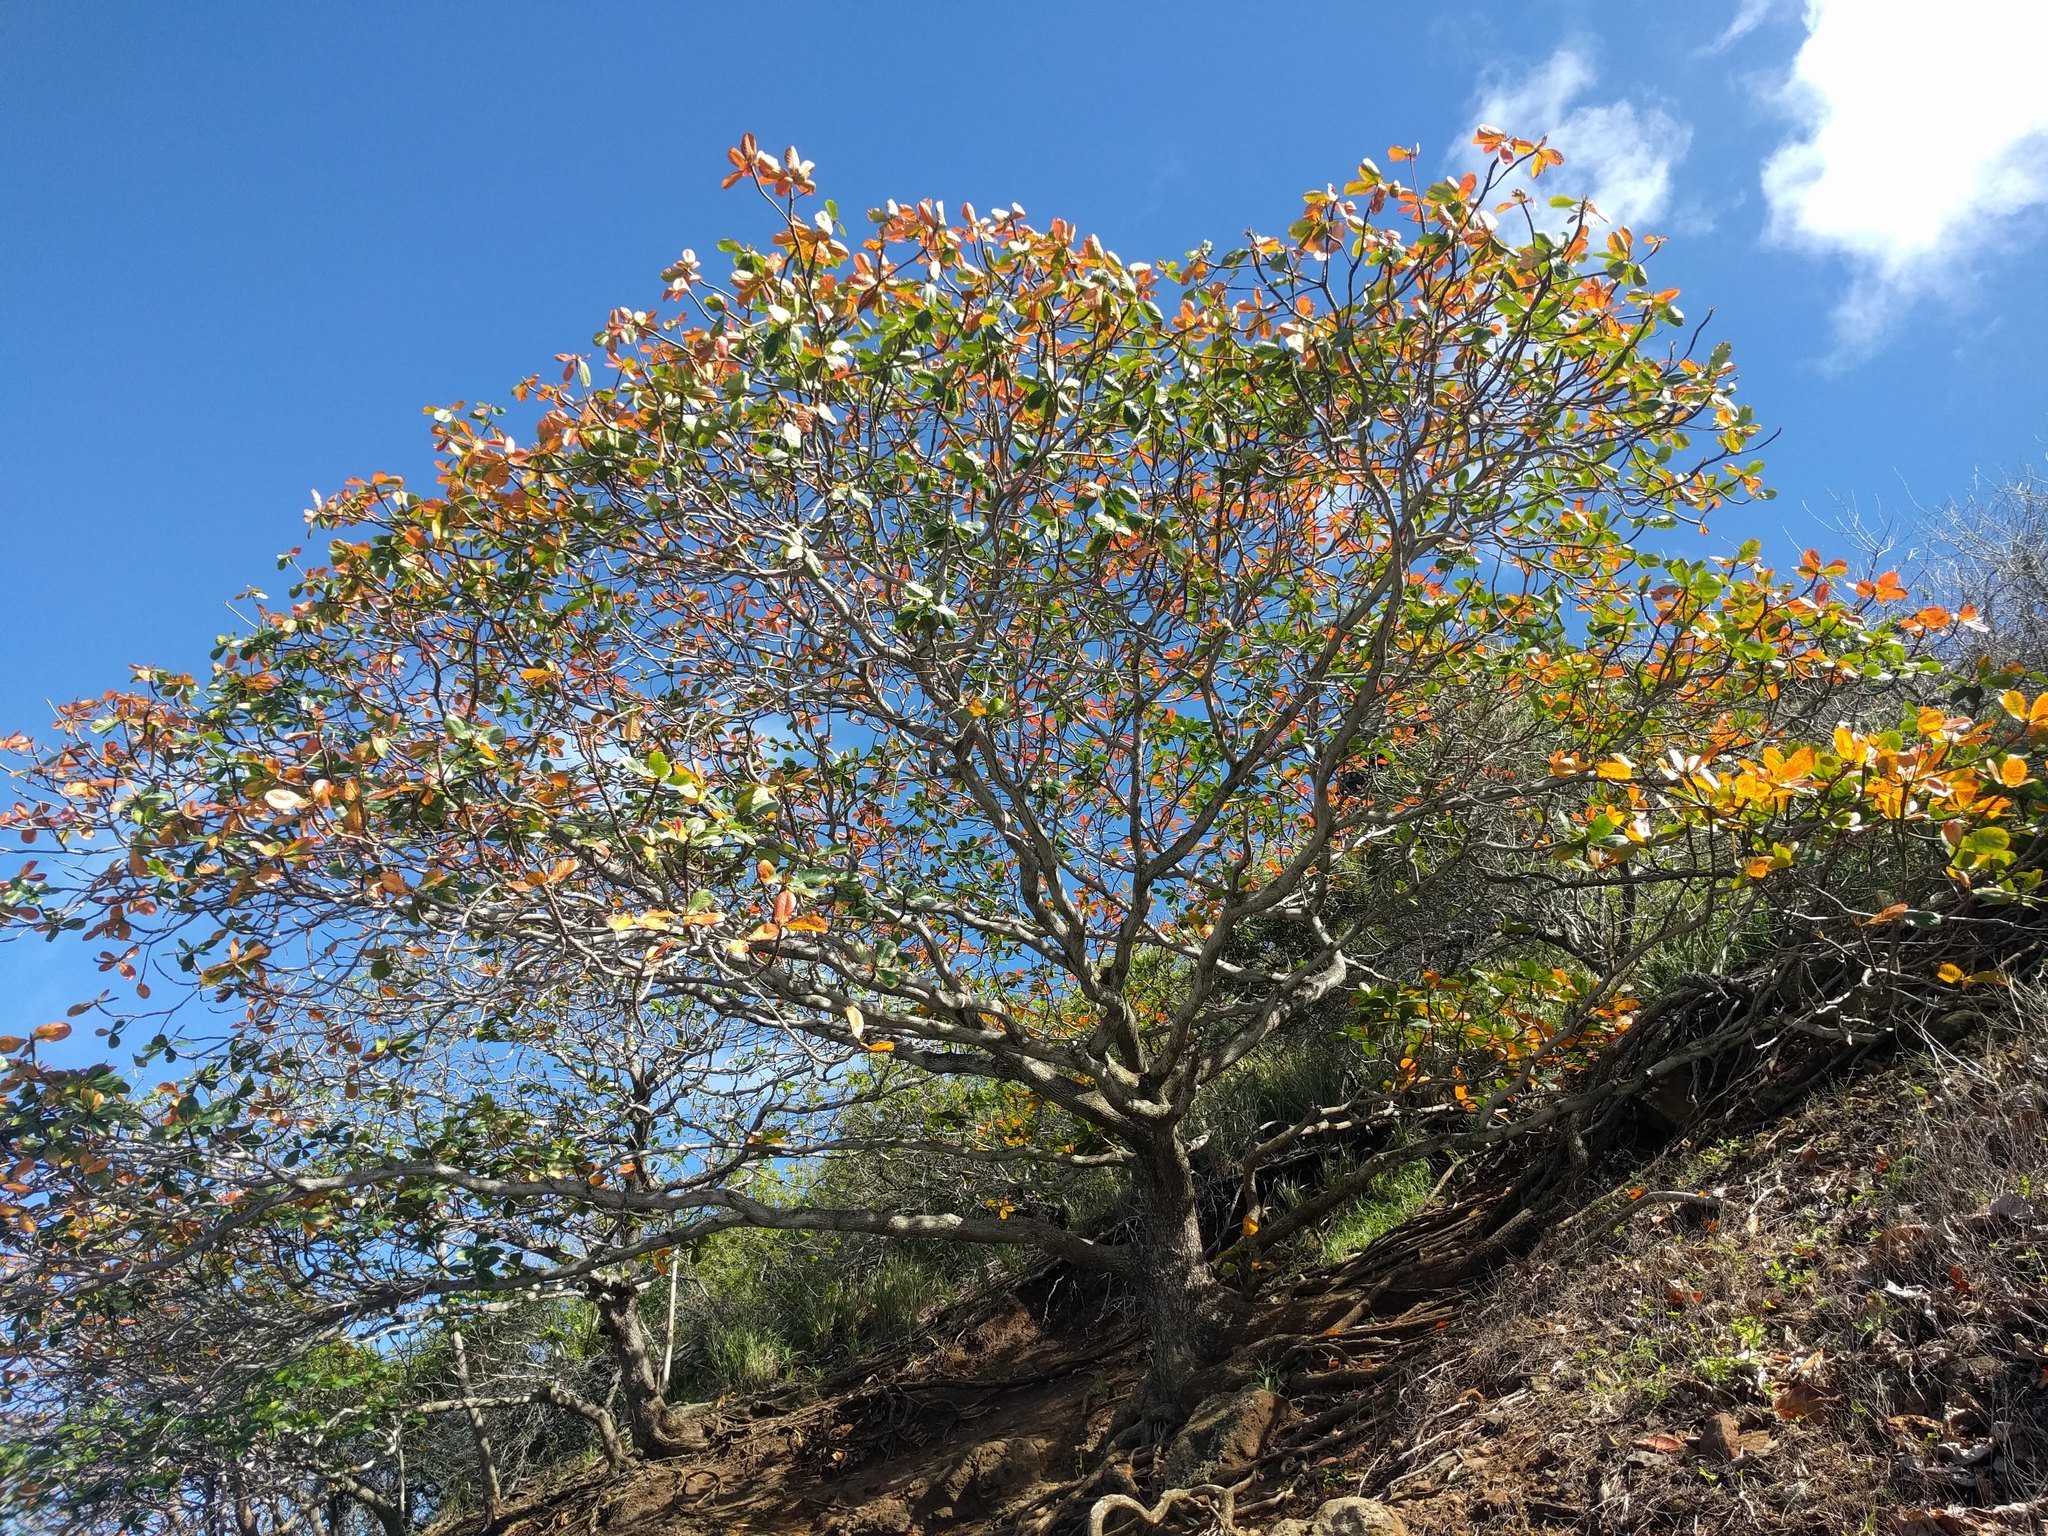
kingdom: Plantae
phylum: Tracheophyta
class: Magnoliopsida
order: Myrtales
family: Combretaceae
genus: Terminalia
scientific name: Terminalia catappa
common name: Tropical almond
